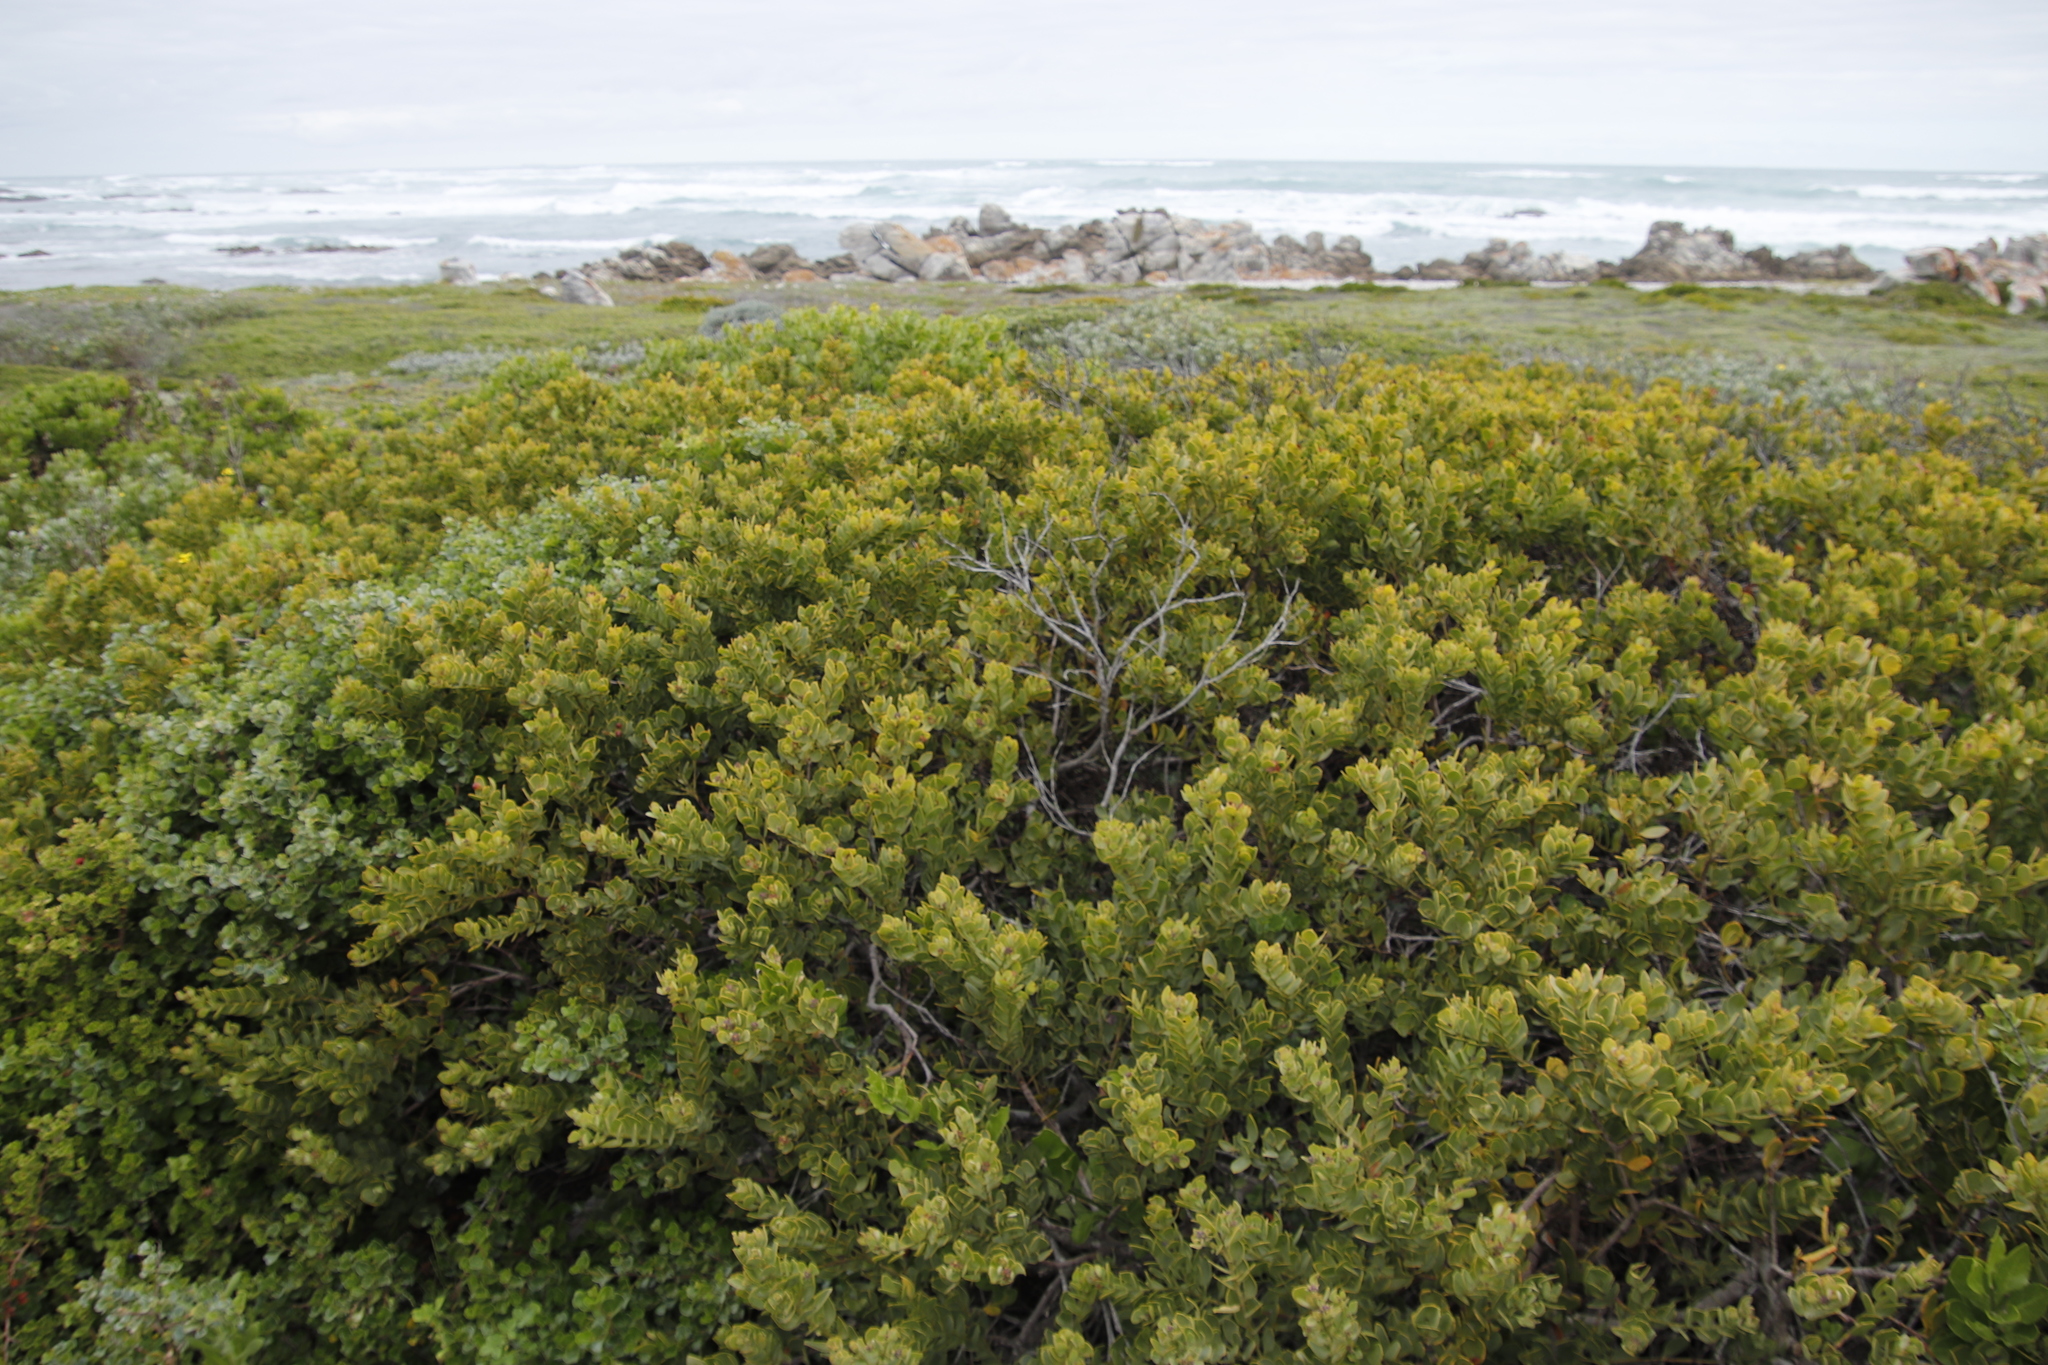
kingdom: Plantae
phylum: Tracheophyta
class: Magnoliopsida
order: Santalales
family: Santalaceae
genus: Osyris
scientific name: Osyris compressa
